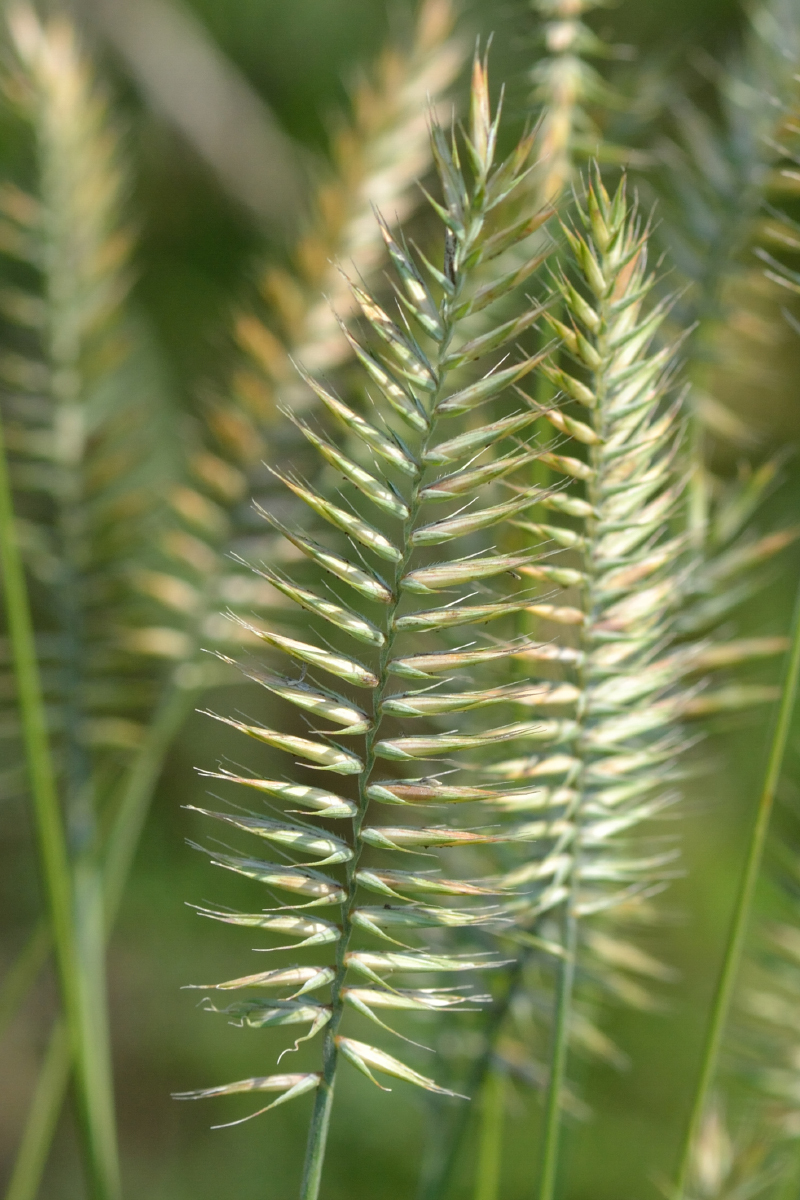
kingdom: Plantae
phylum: Tracheophyta
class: Liliopsida
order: Poales
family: Poaceae
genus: Agropyron
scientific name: Agropyron cristatum
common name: Crested wheatgrass
